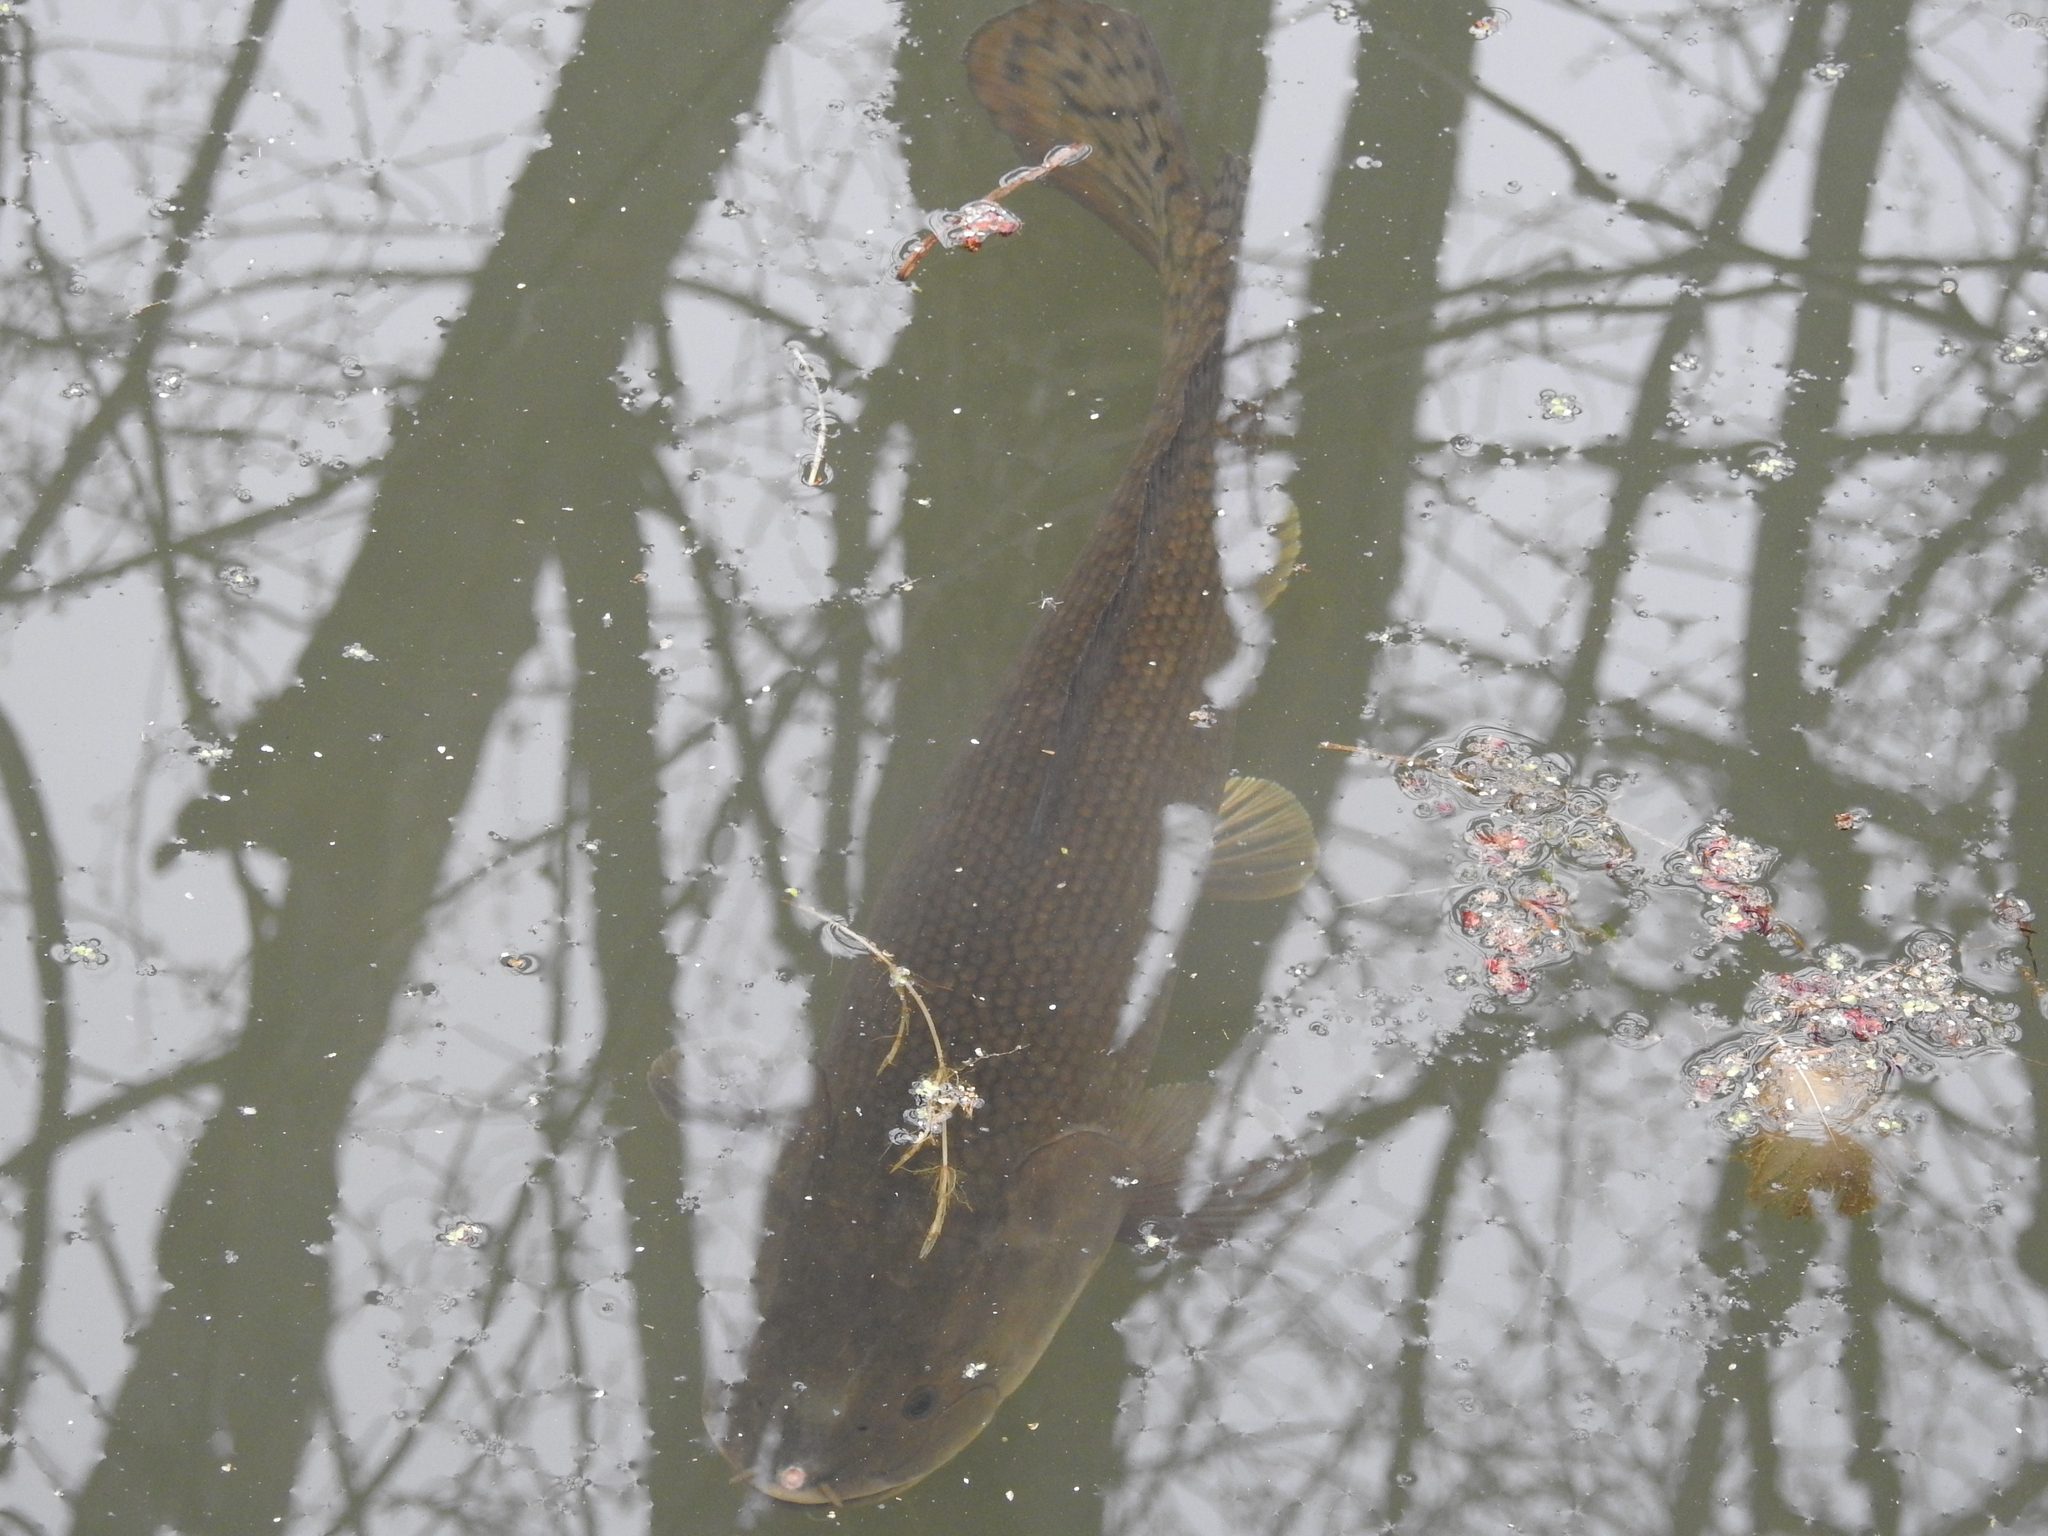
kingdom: Animalia
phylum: Chordata
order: Amiiformes
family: Amiidae
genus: Amia
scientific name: Amia calva
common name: Bowfin
